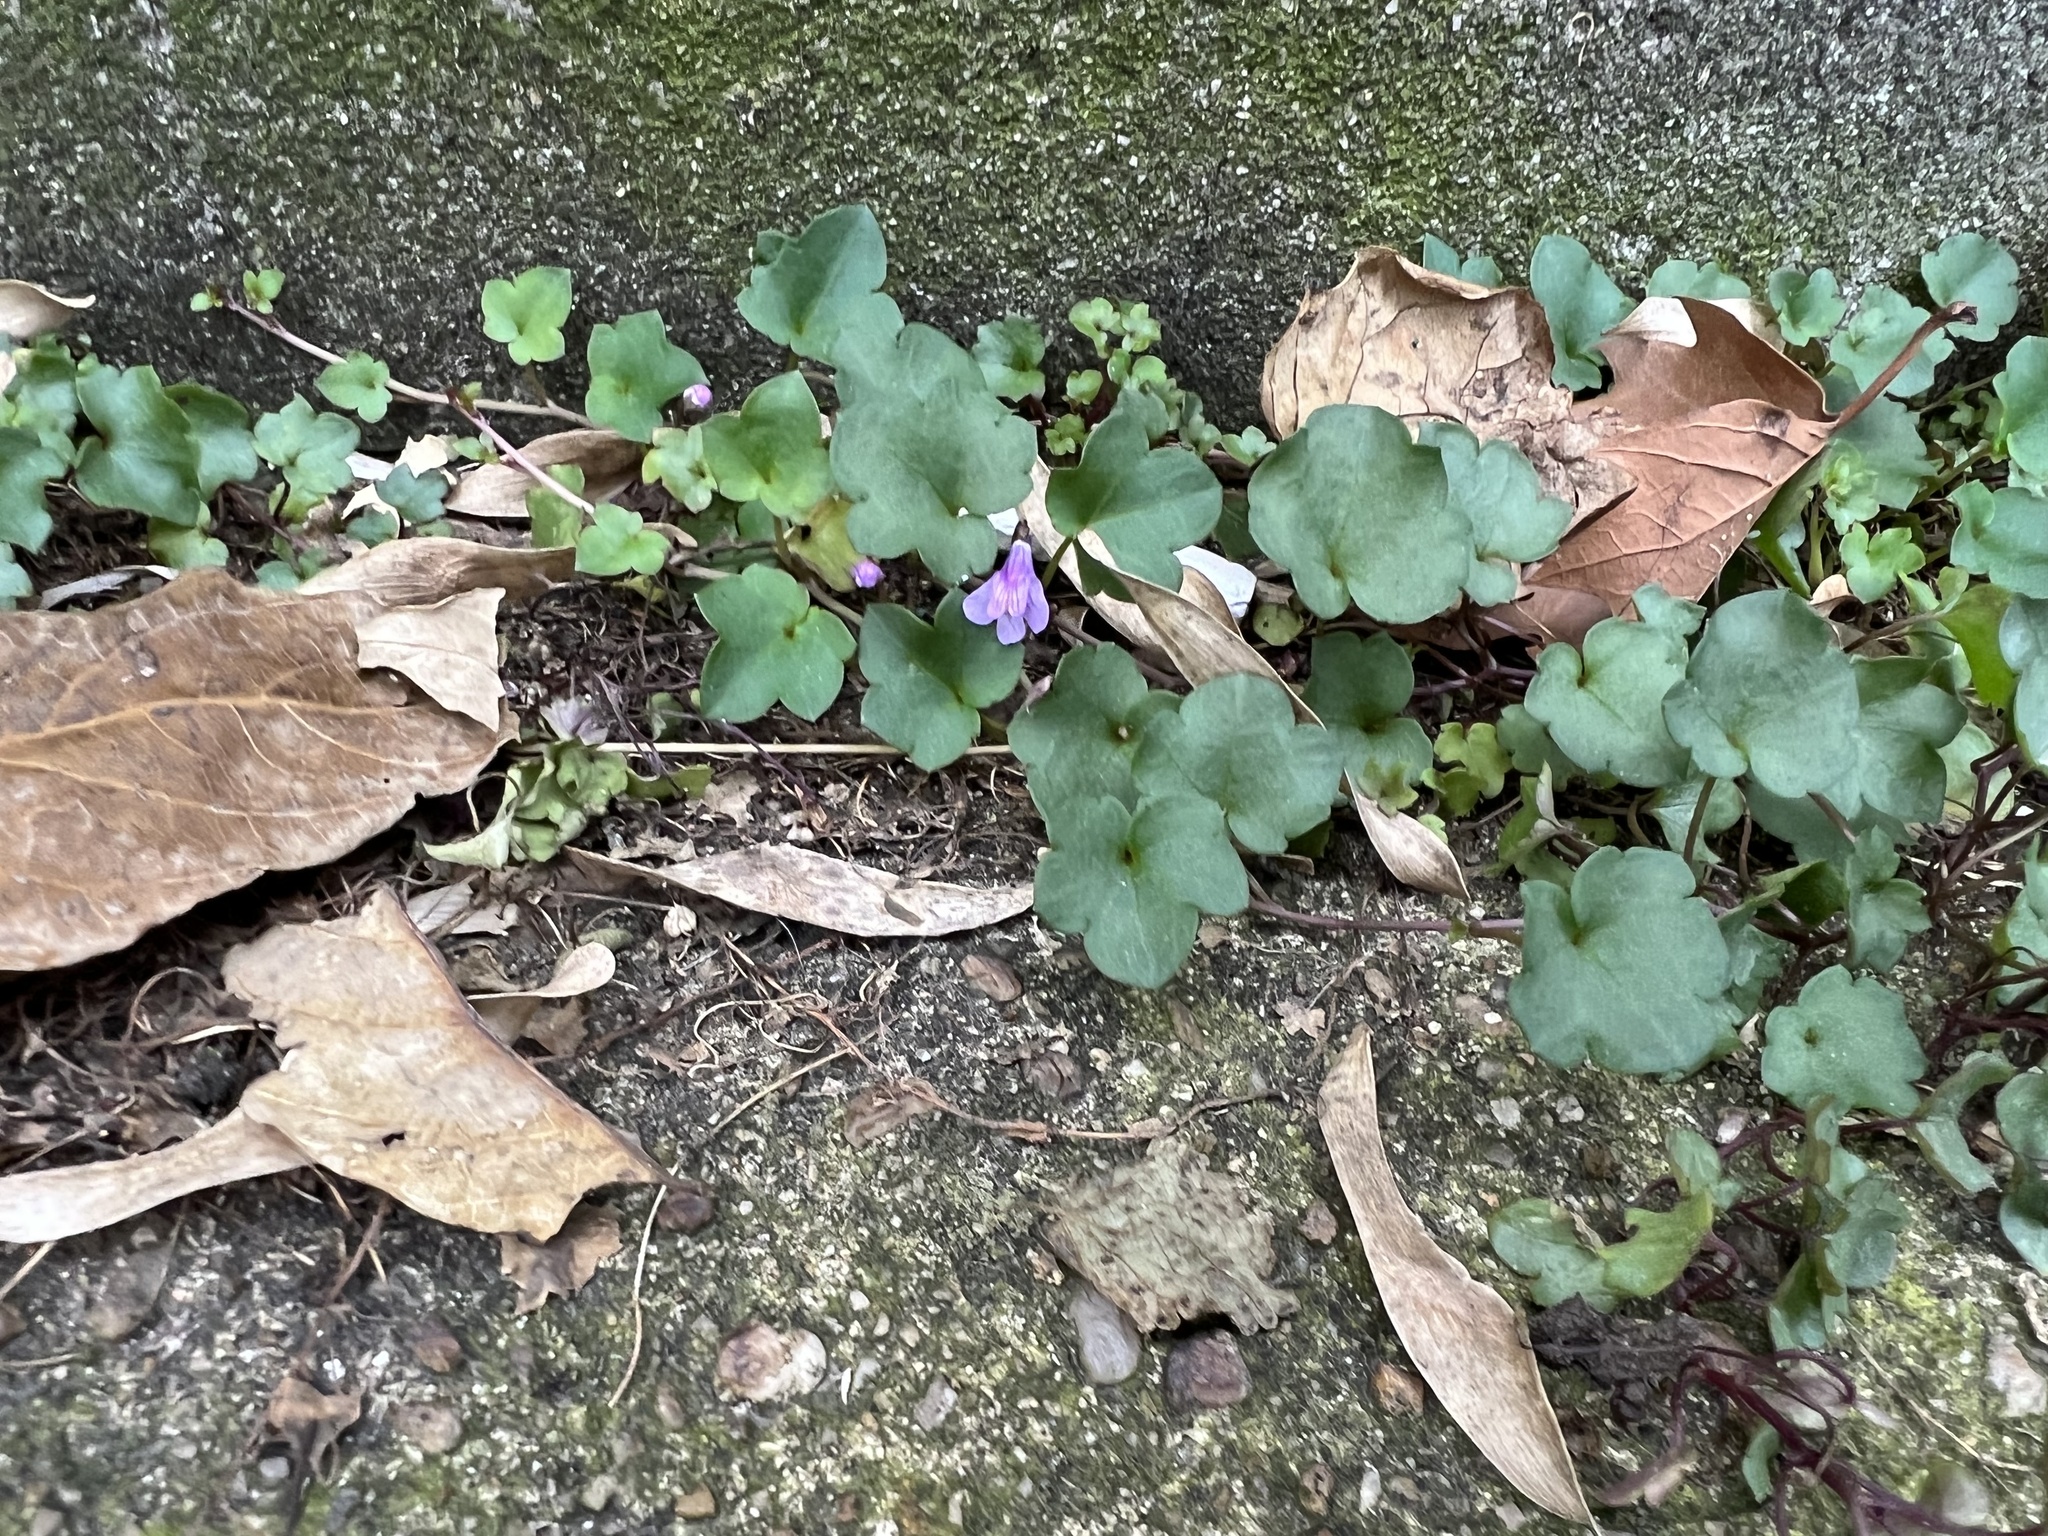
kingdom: Plantae
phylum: Tracheophyta
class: Magnoliopsida
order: Lamiales
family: Plantaginaceae
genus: Cymbalaria
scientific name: Cymbalaria muralis
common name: Ivy-leaved toadflax
